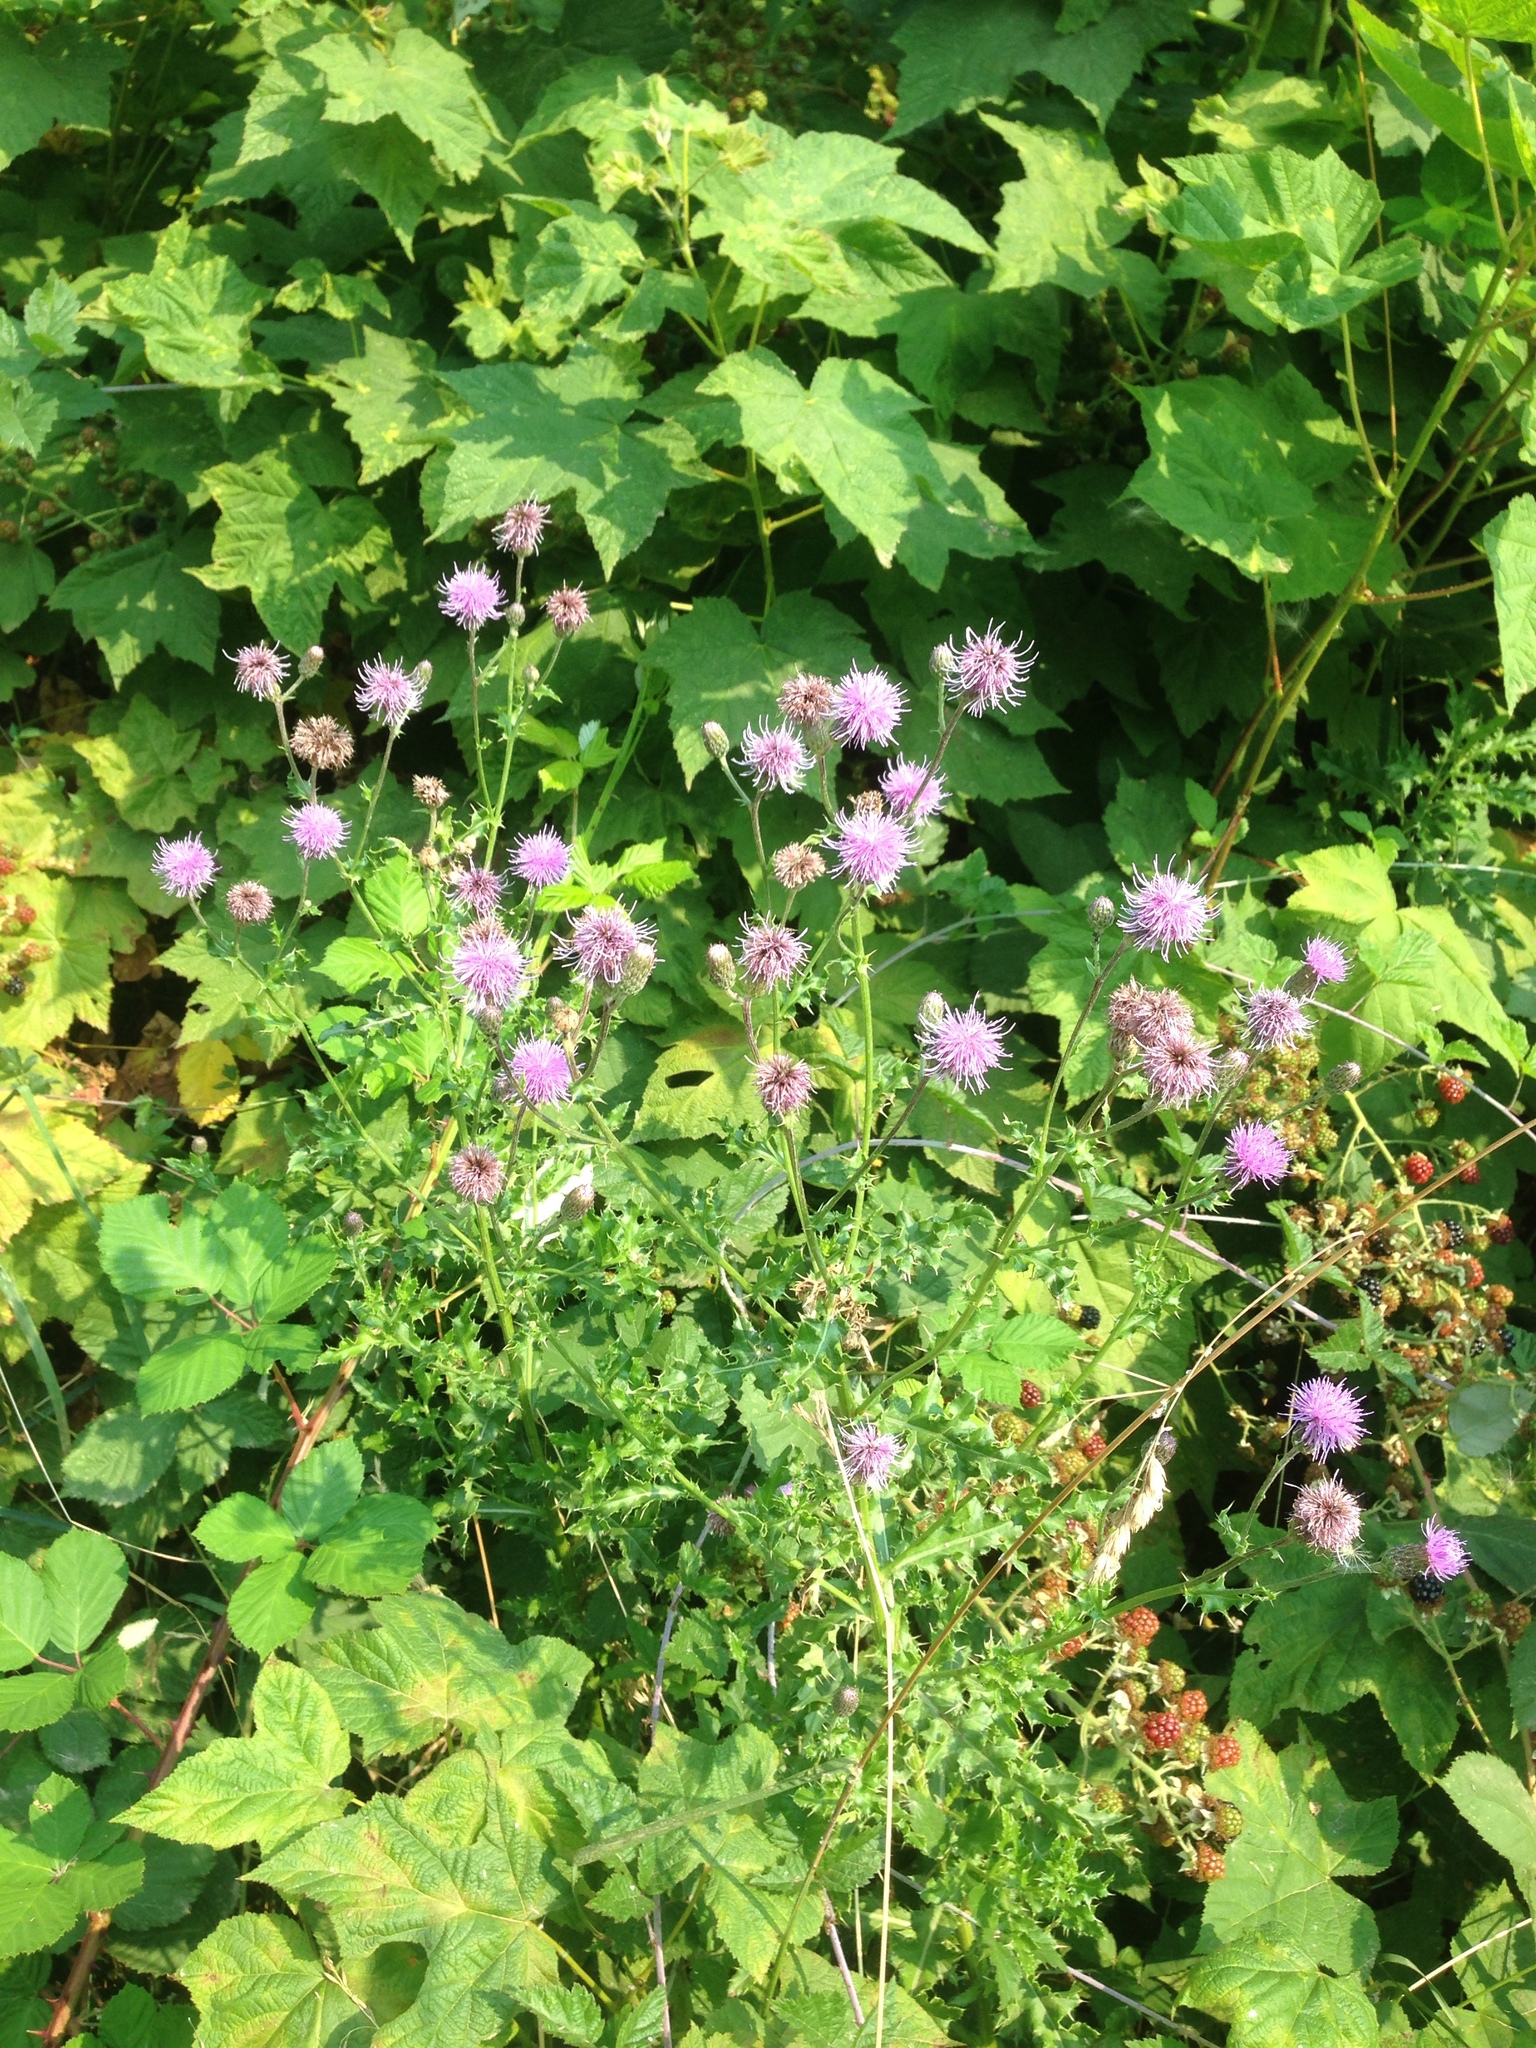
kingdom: Plantae
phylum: Tracheophyta
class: Magnoliopsida
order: Asterales
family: Asteraceae
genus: Cirsium
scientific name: Cirsium arvense
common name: Creeping thistle
